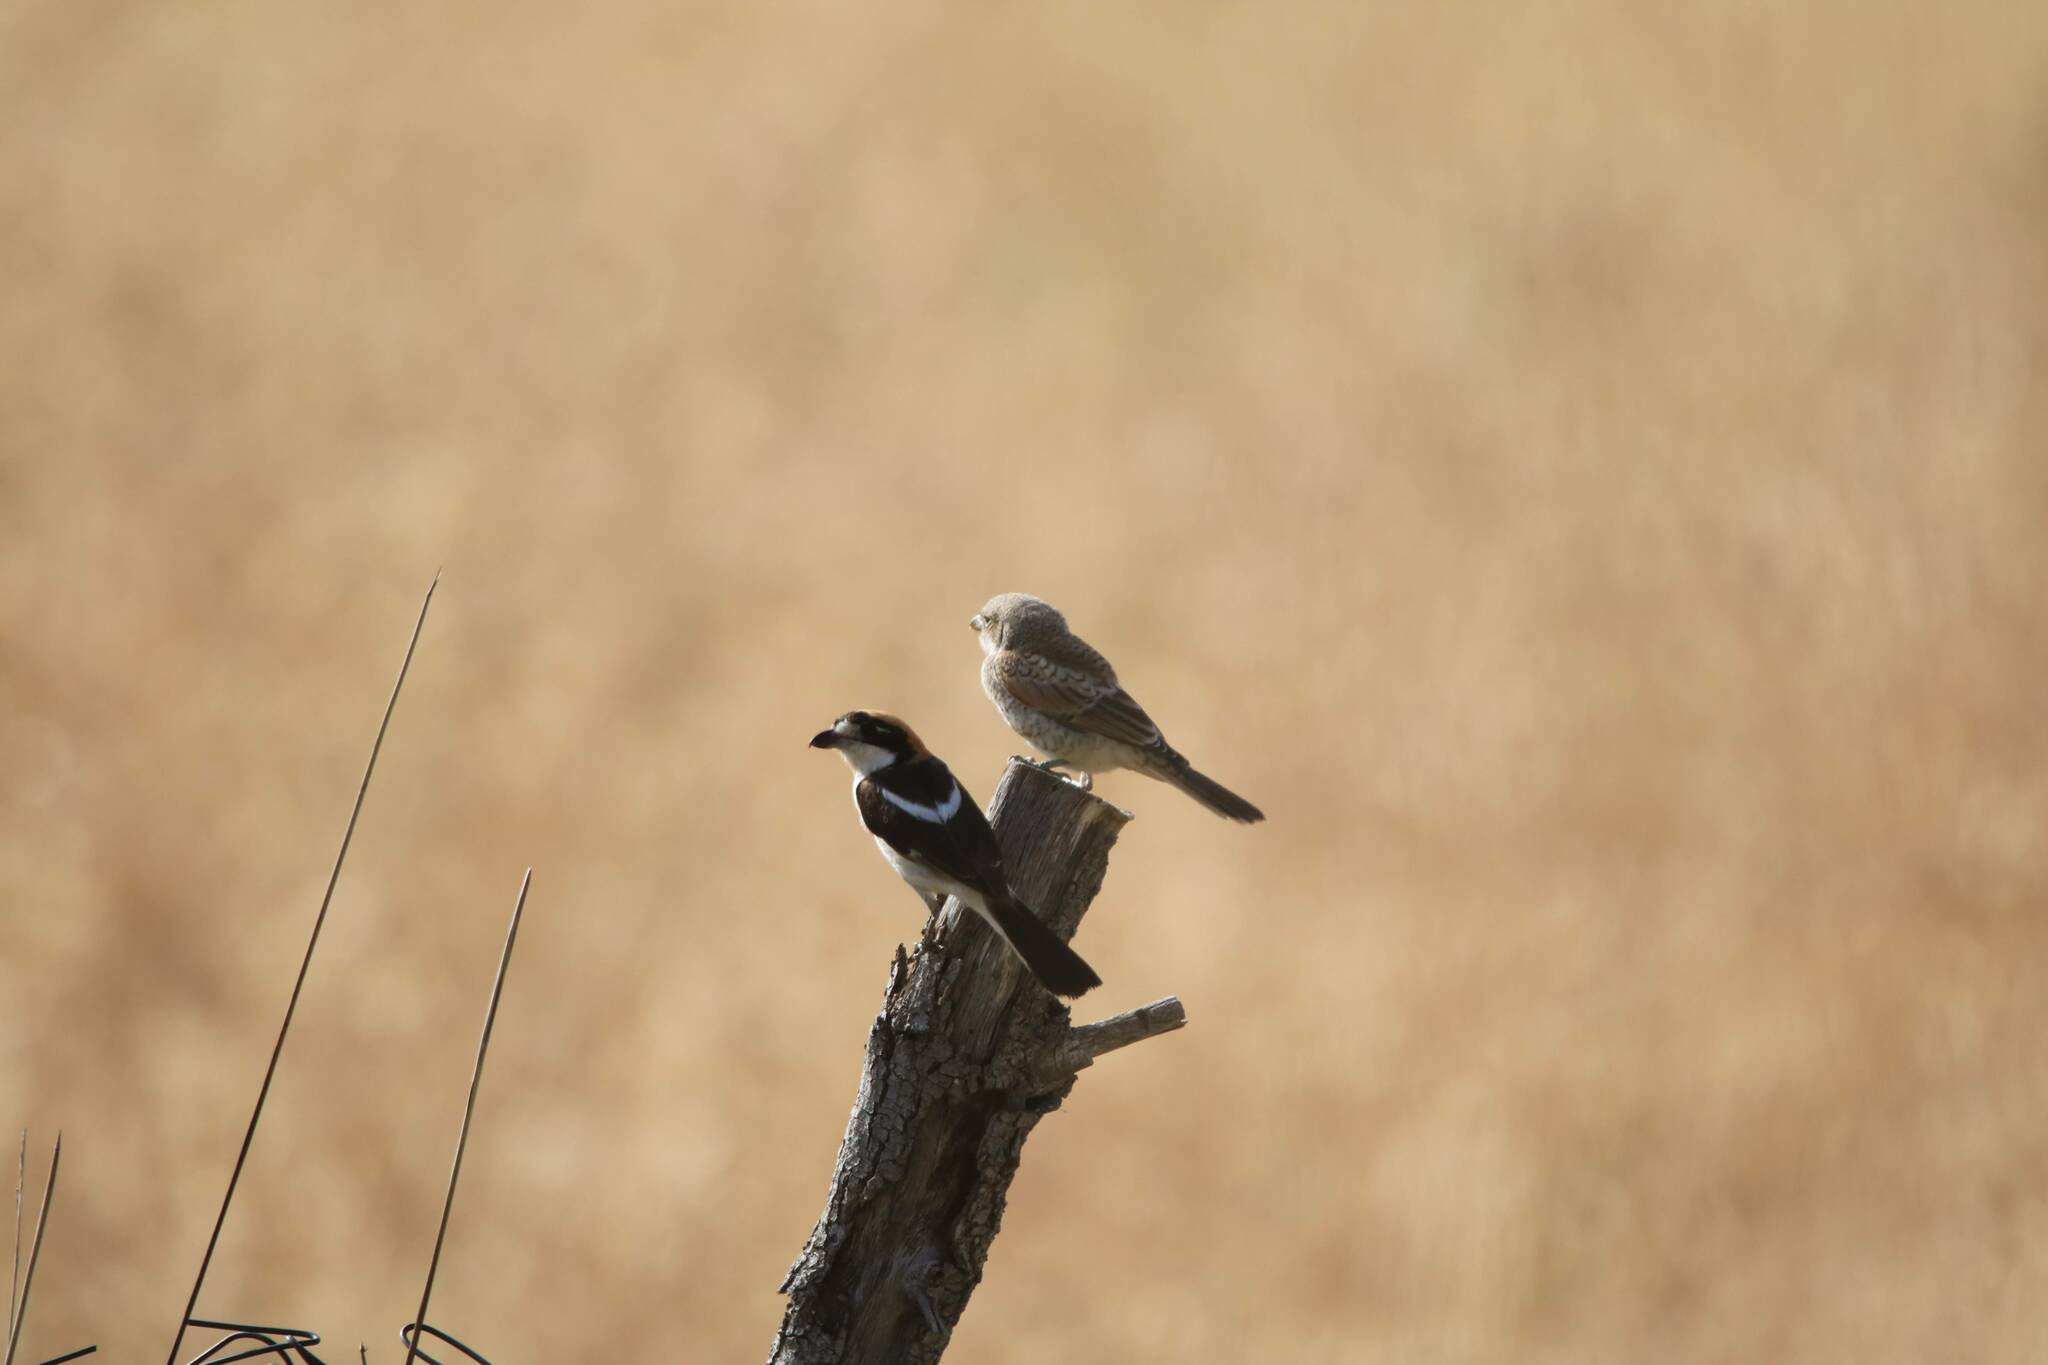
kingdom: Animalia
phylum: Chordata
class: Aves
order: Passeriformes
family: Laniidae
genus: Lanius
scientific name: Lanius senator
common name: Woodchat shrike
